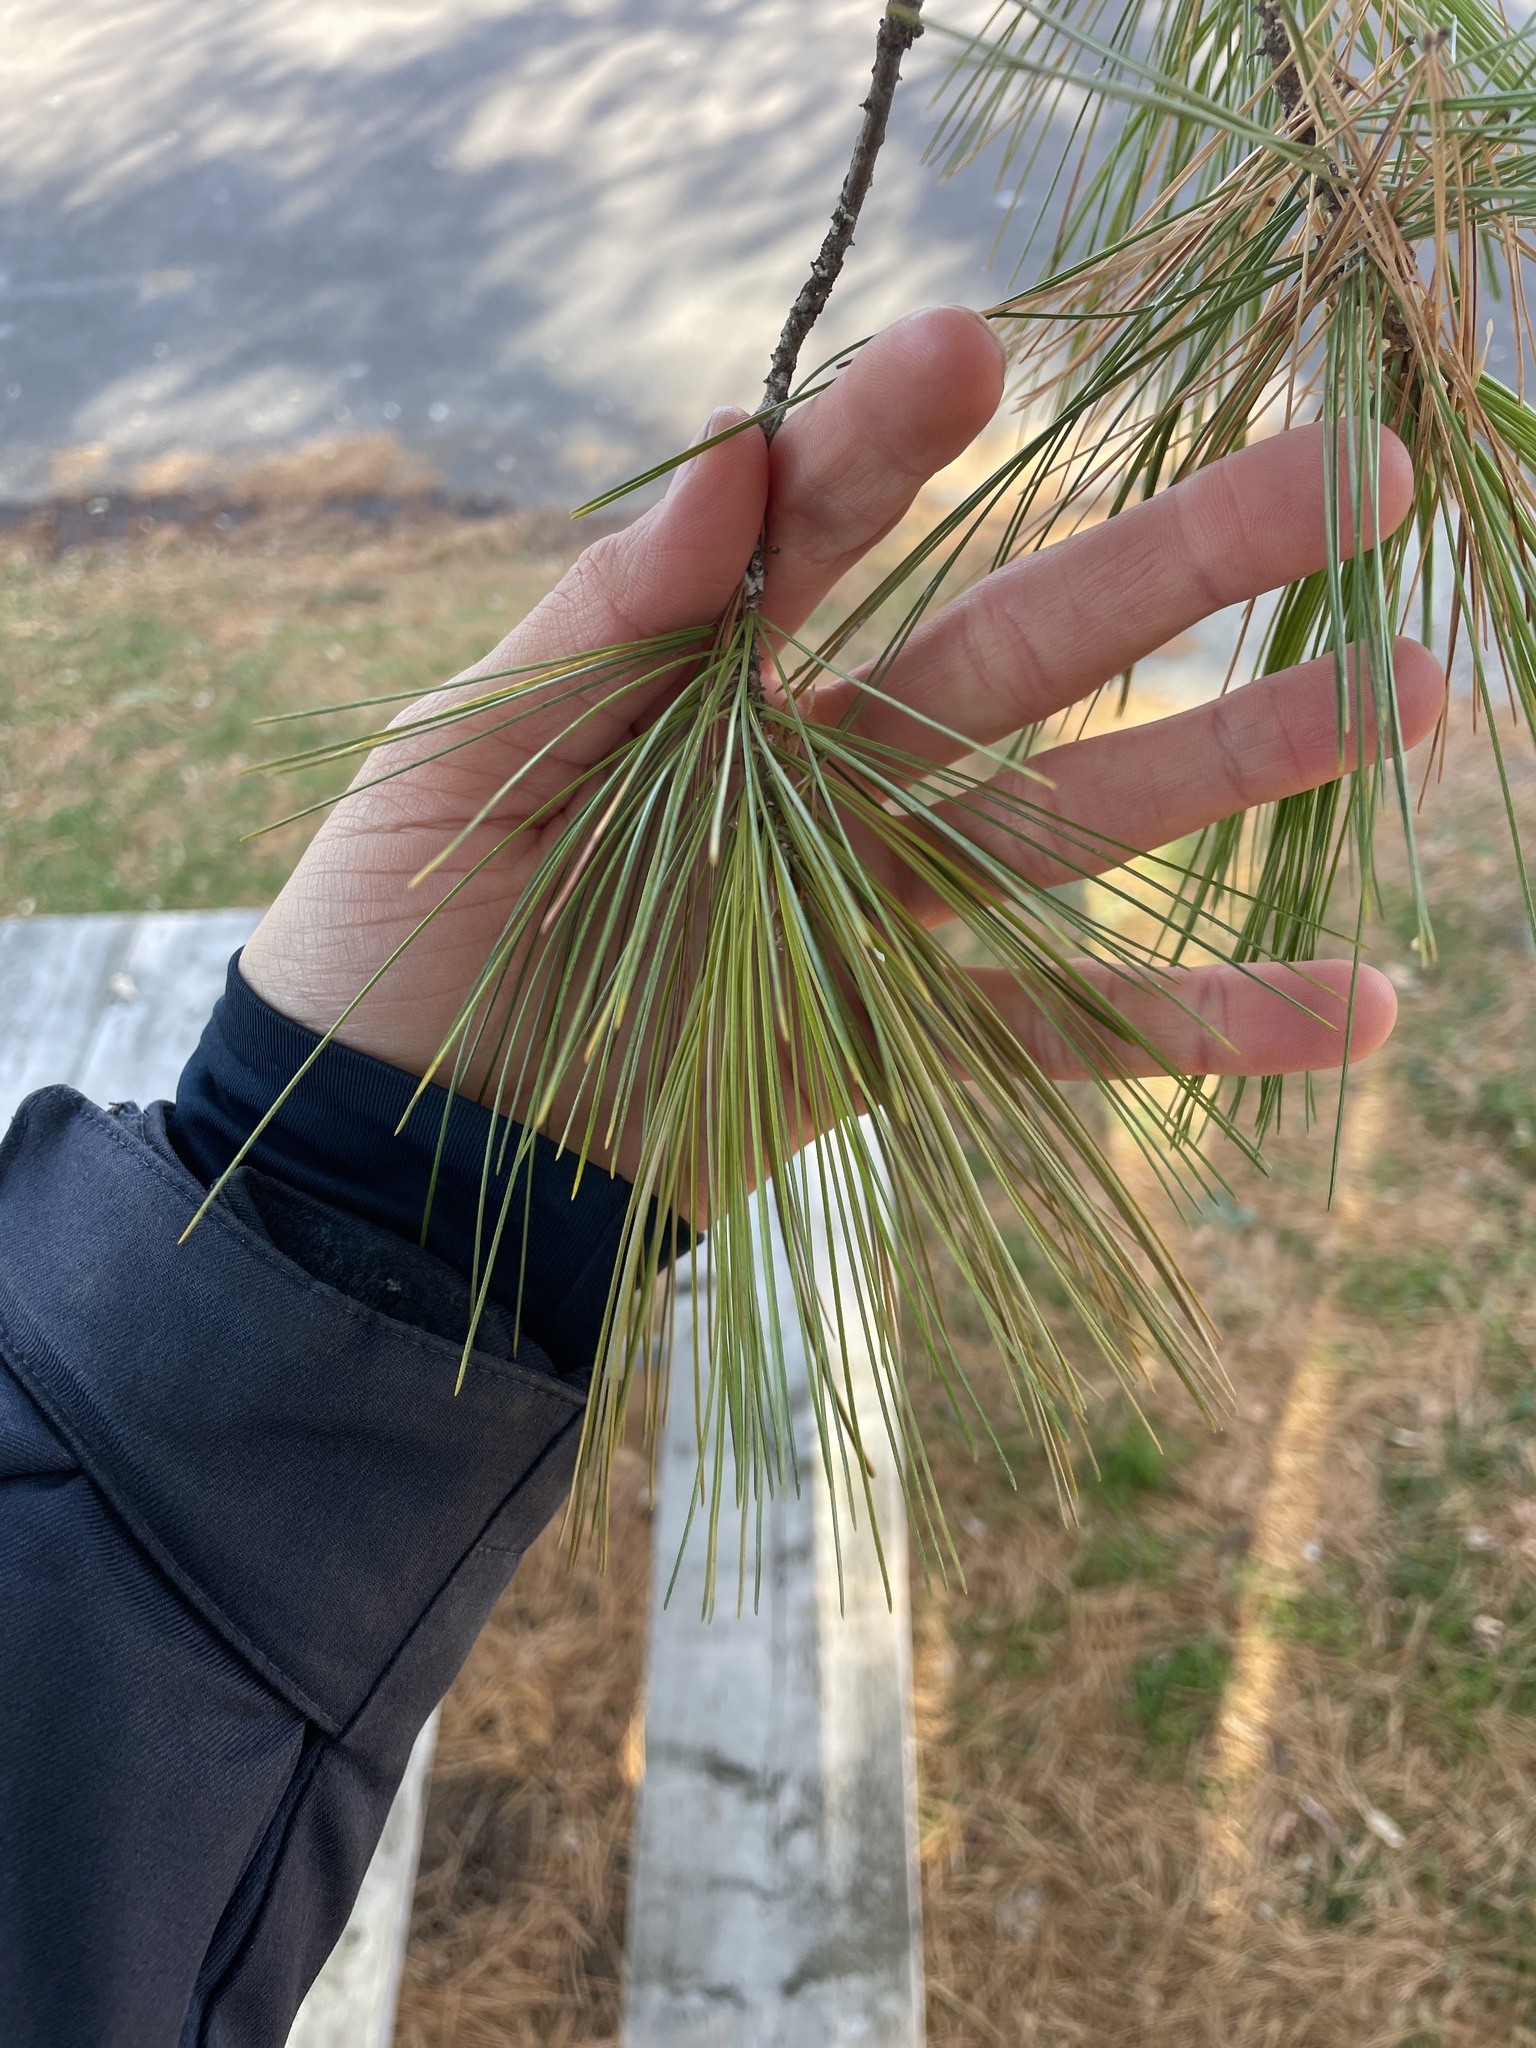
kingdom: Plantae
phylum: Tracheophyta
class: Pinopsida
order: Pinales
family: Pinaceae
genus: Pinus
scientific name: Pinus strobus
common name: Weymouth pine
